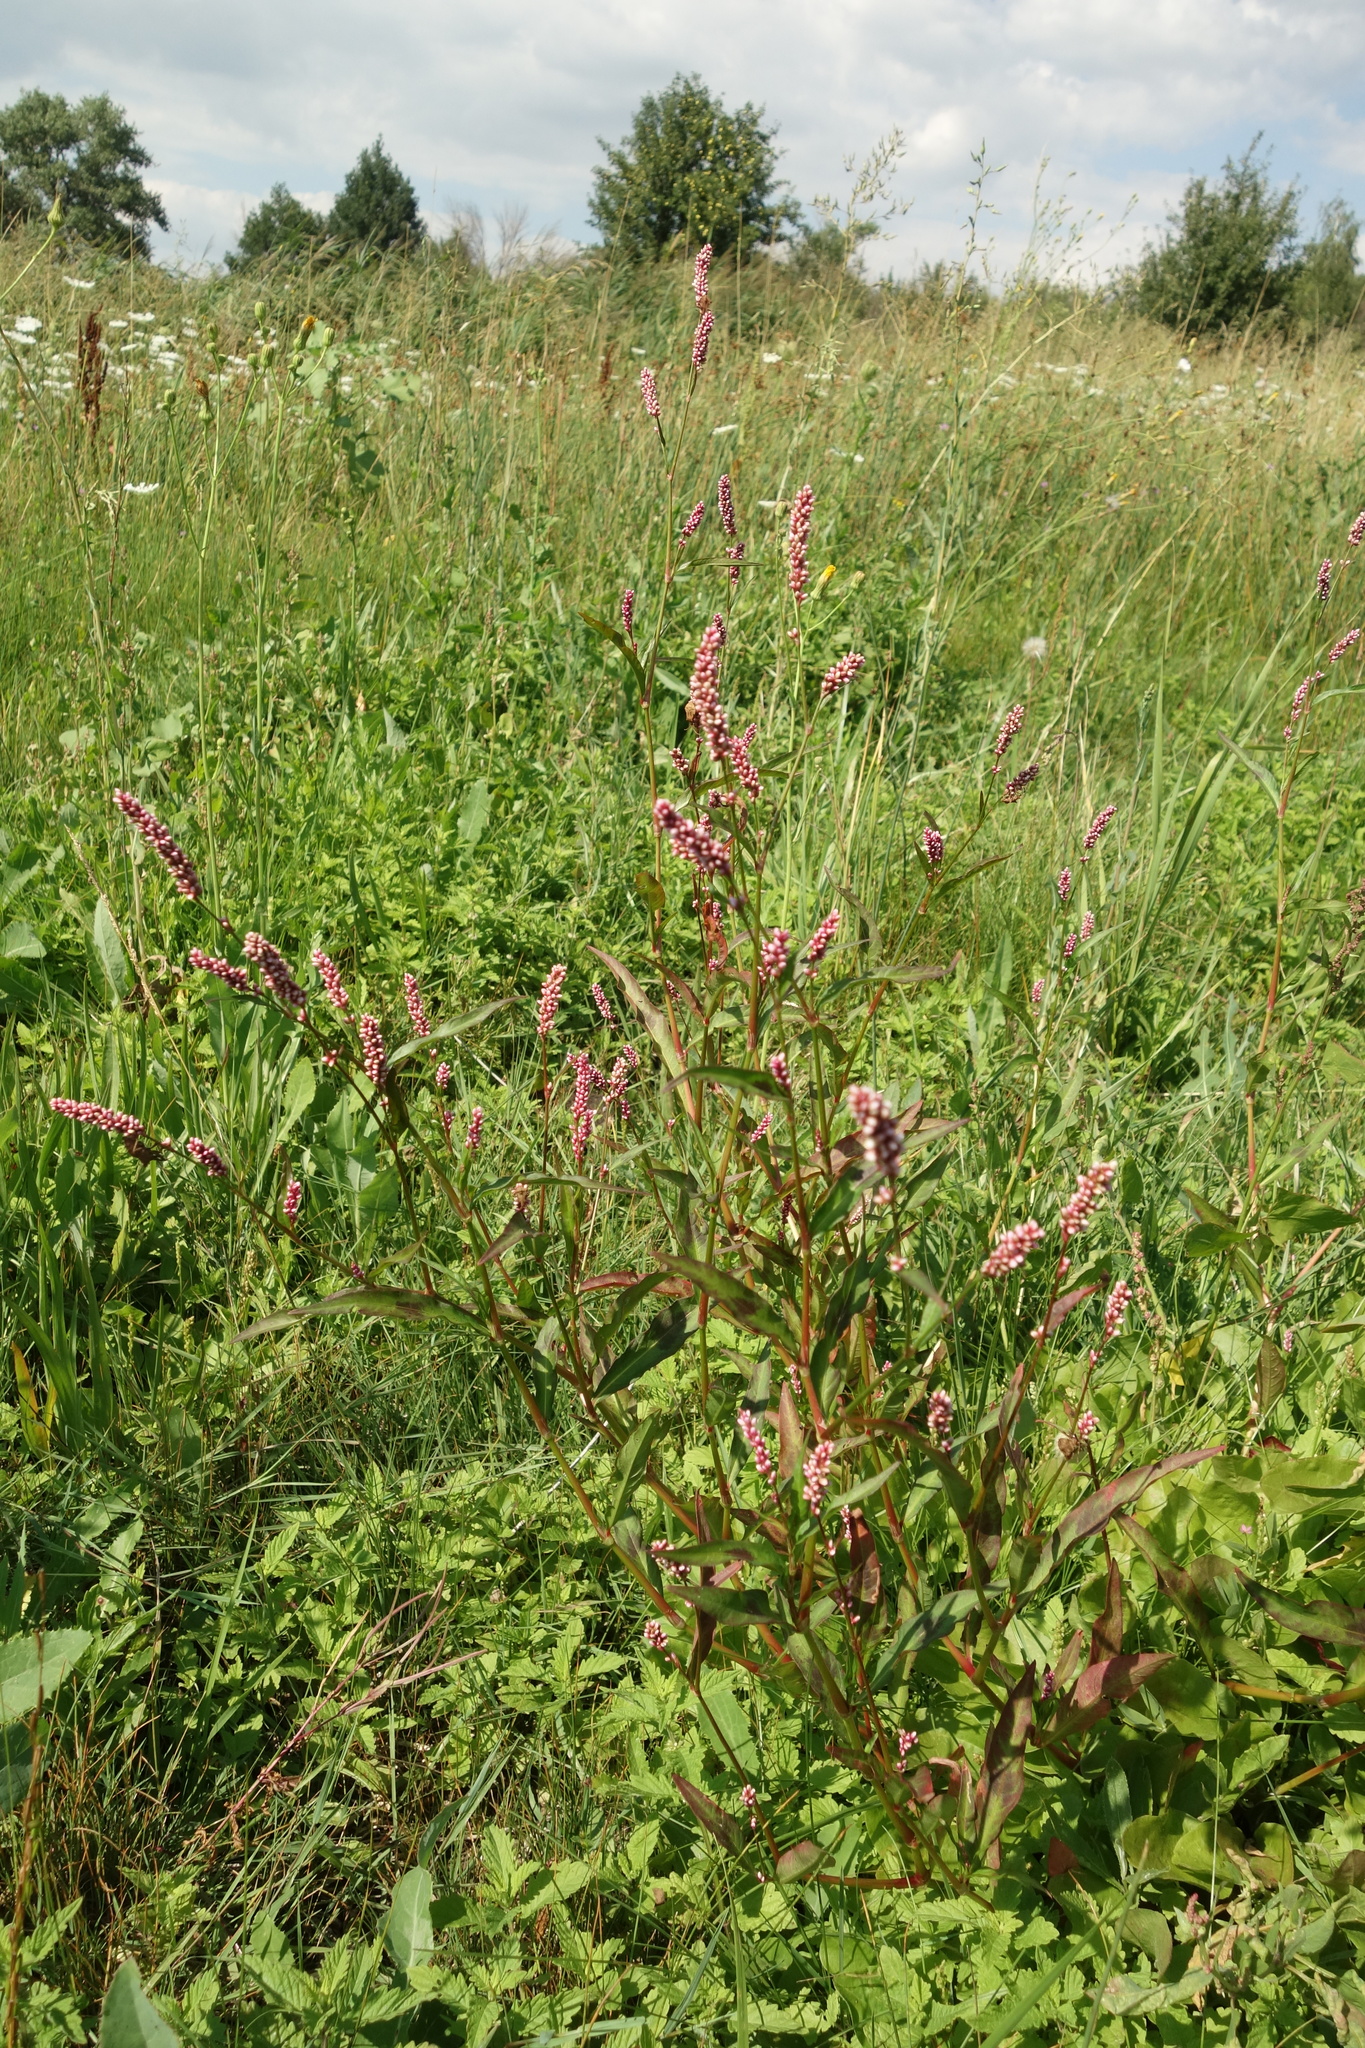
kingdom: Plantae
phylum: Tracheophyta
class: Magnoliopsida
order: Caryophyllales
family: Polygonaceae
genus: Persicaria
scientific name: Persicaria maculosa
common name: Redshank
